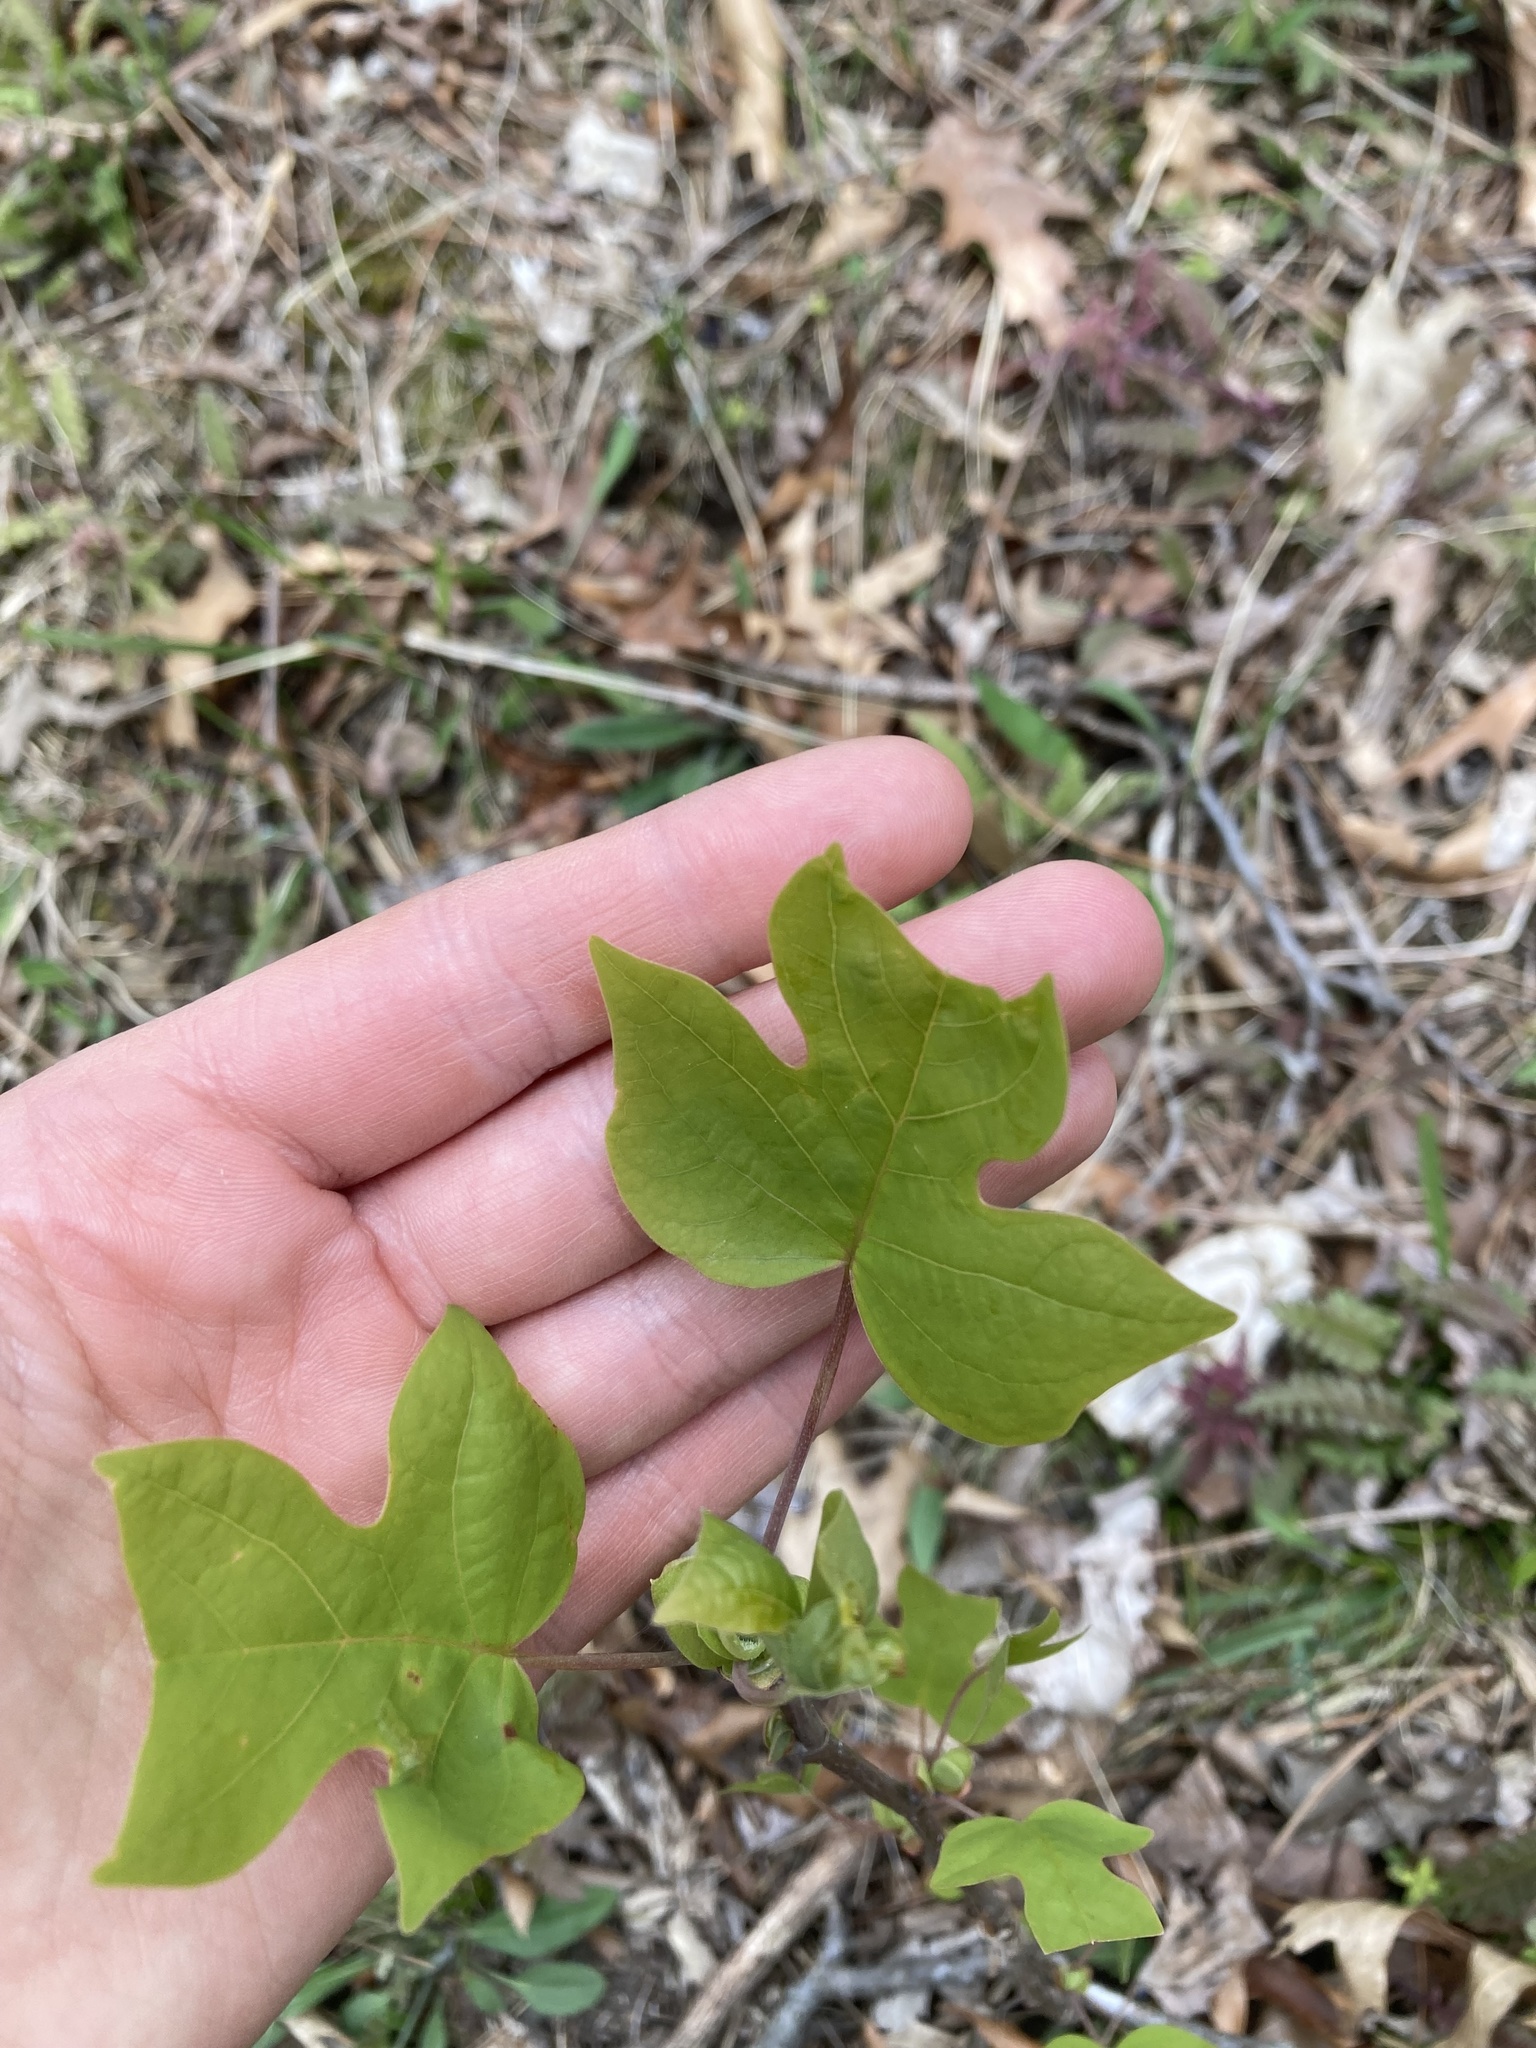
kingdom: Plantae
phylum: Tracheophyta
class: Magnoliopsida
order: Magnoliales
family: Magnoliaceae
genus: Liriodendron
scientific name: Liriodendron tulipifera
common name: Tulip tree
